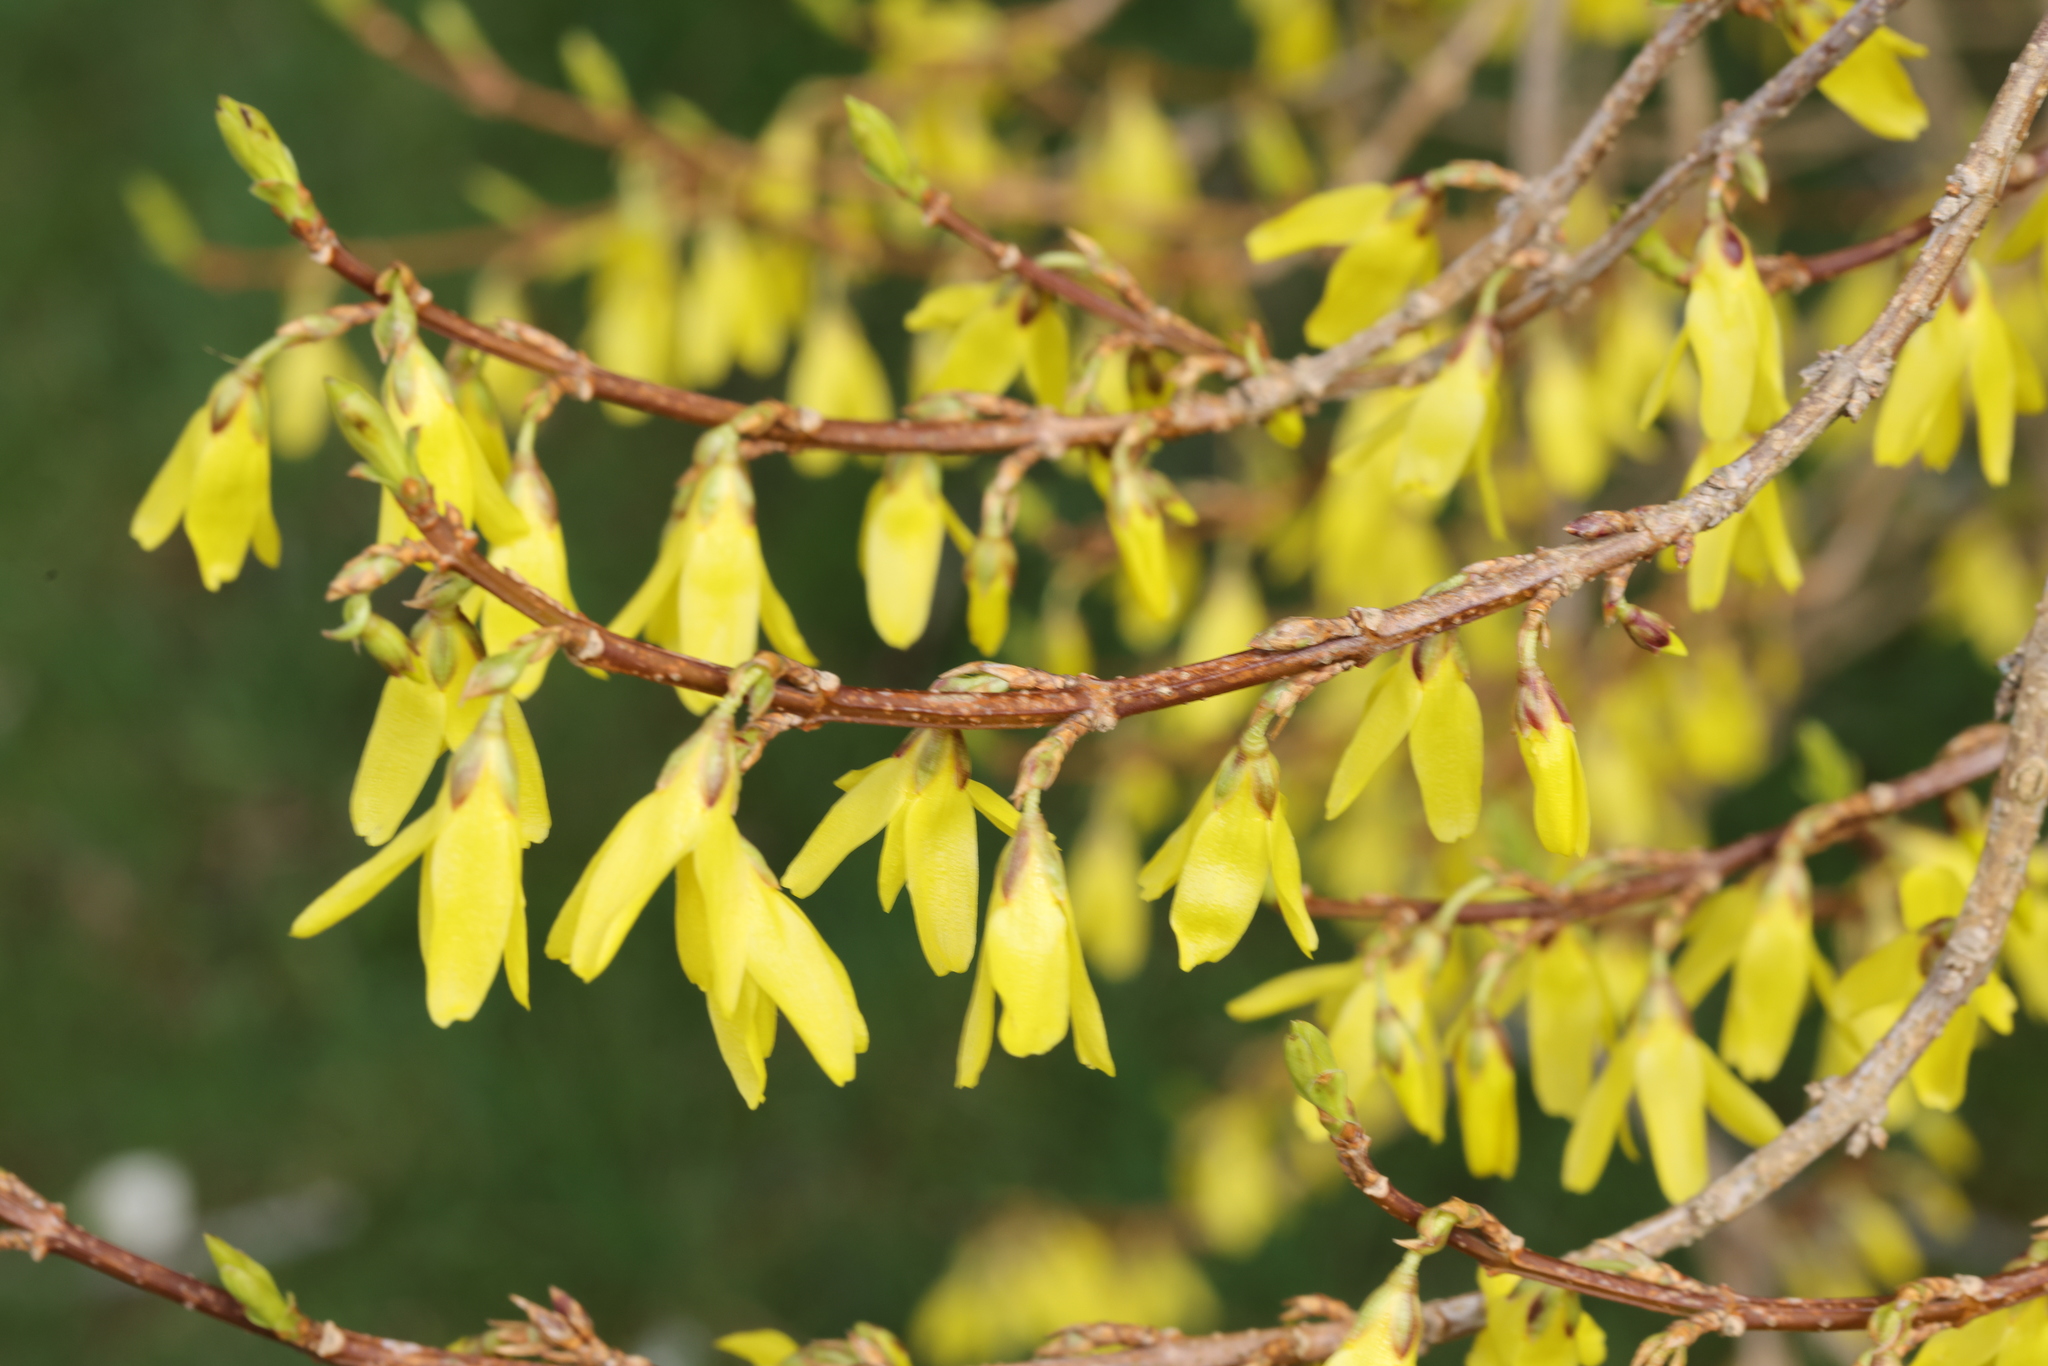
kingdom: Plantae
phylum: Tracheophyta
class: Magnoliopsida
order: Lamiales
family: Oleaceae
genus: Forsythia
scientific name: Forsythia intermedia
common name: Forsythia
